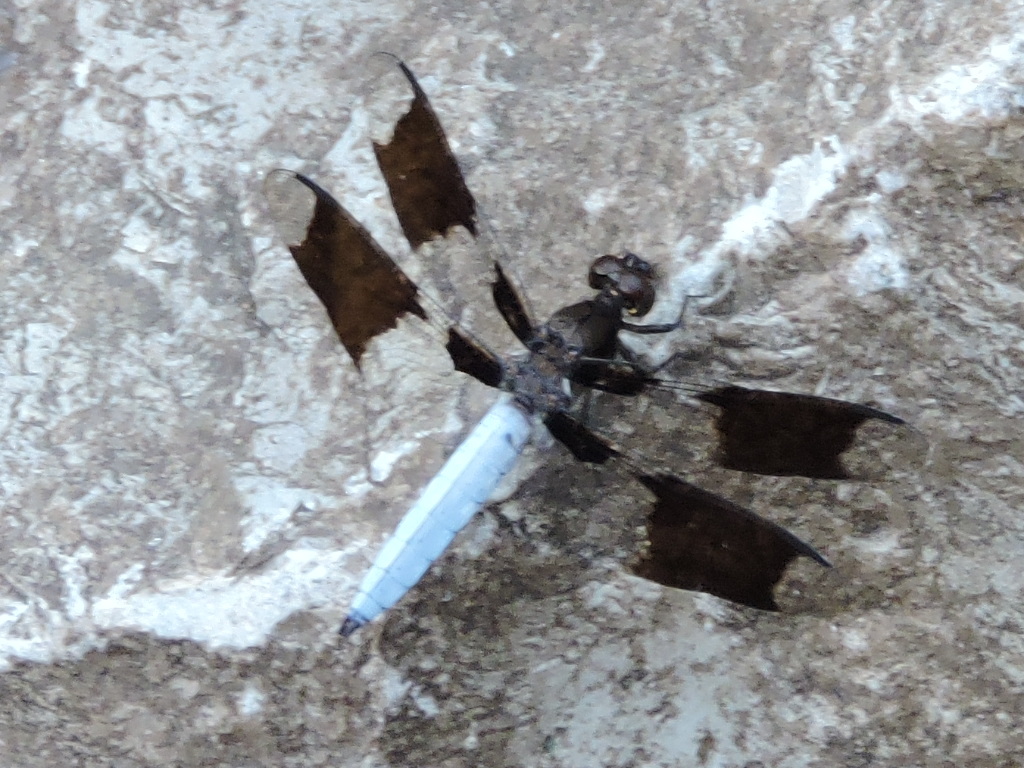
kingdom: Animalia
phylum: Arthropoda
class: Insecta
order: Odonata
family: Libellulidae
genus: Plathemis
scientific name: Plathemis lydia
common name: Common whitetail
